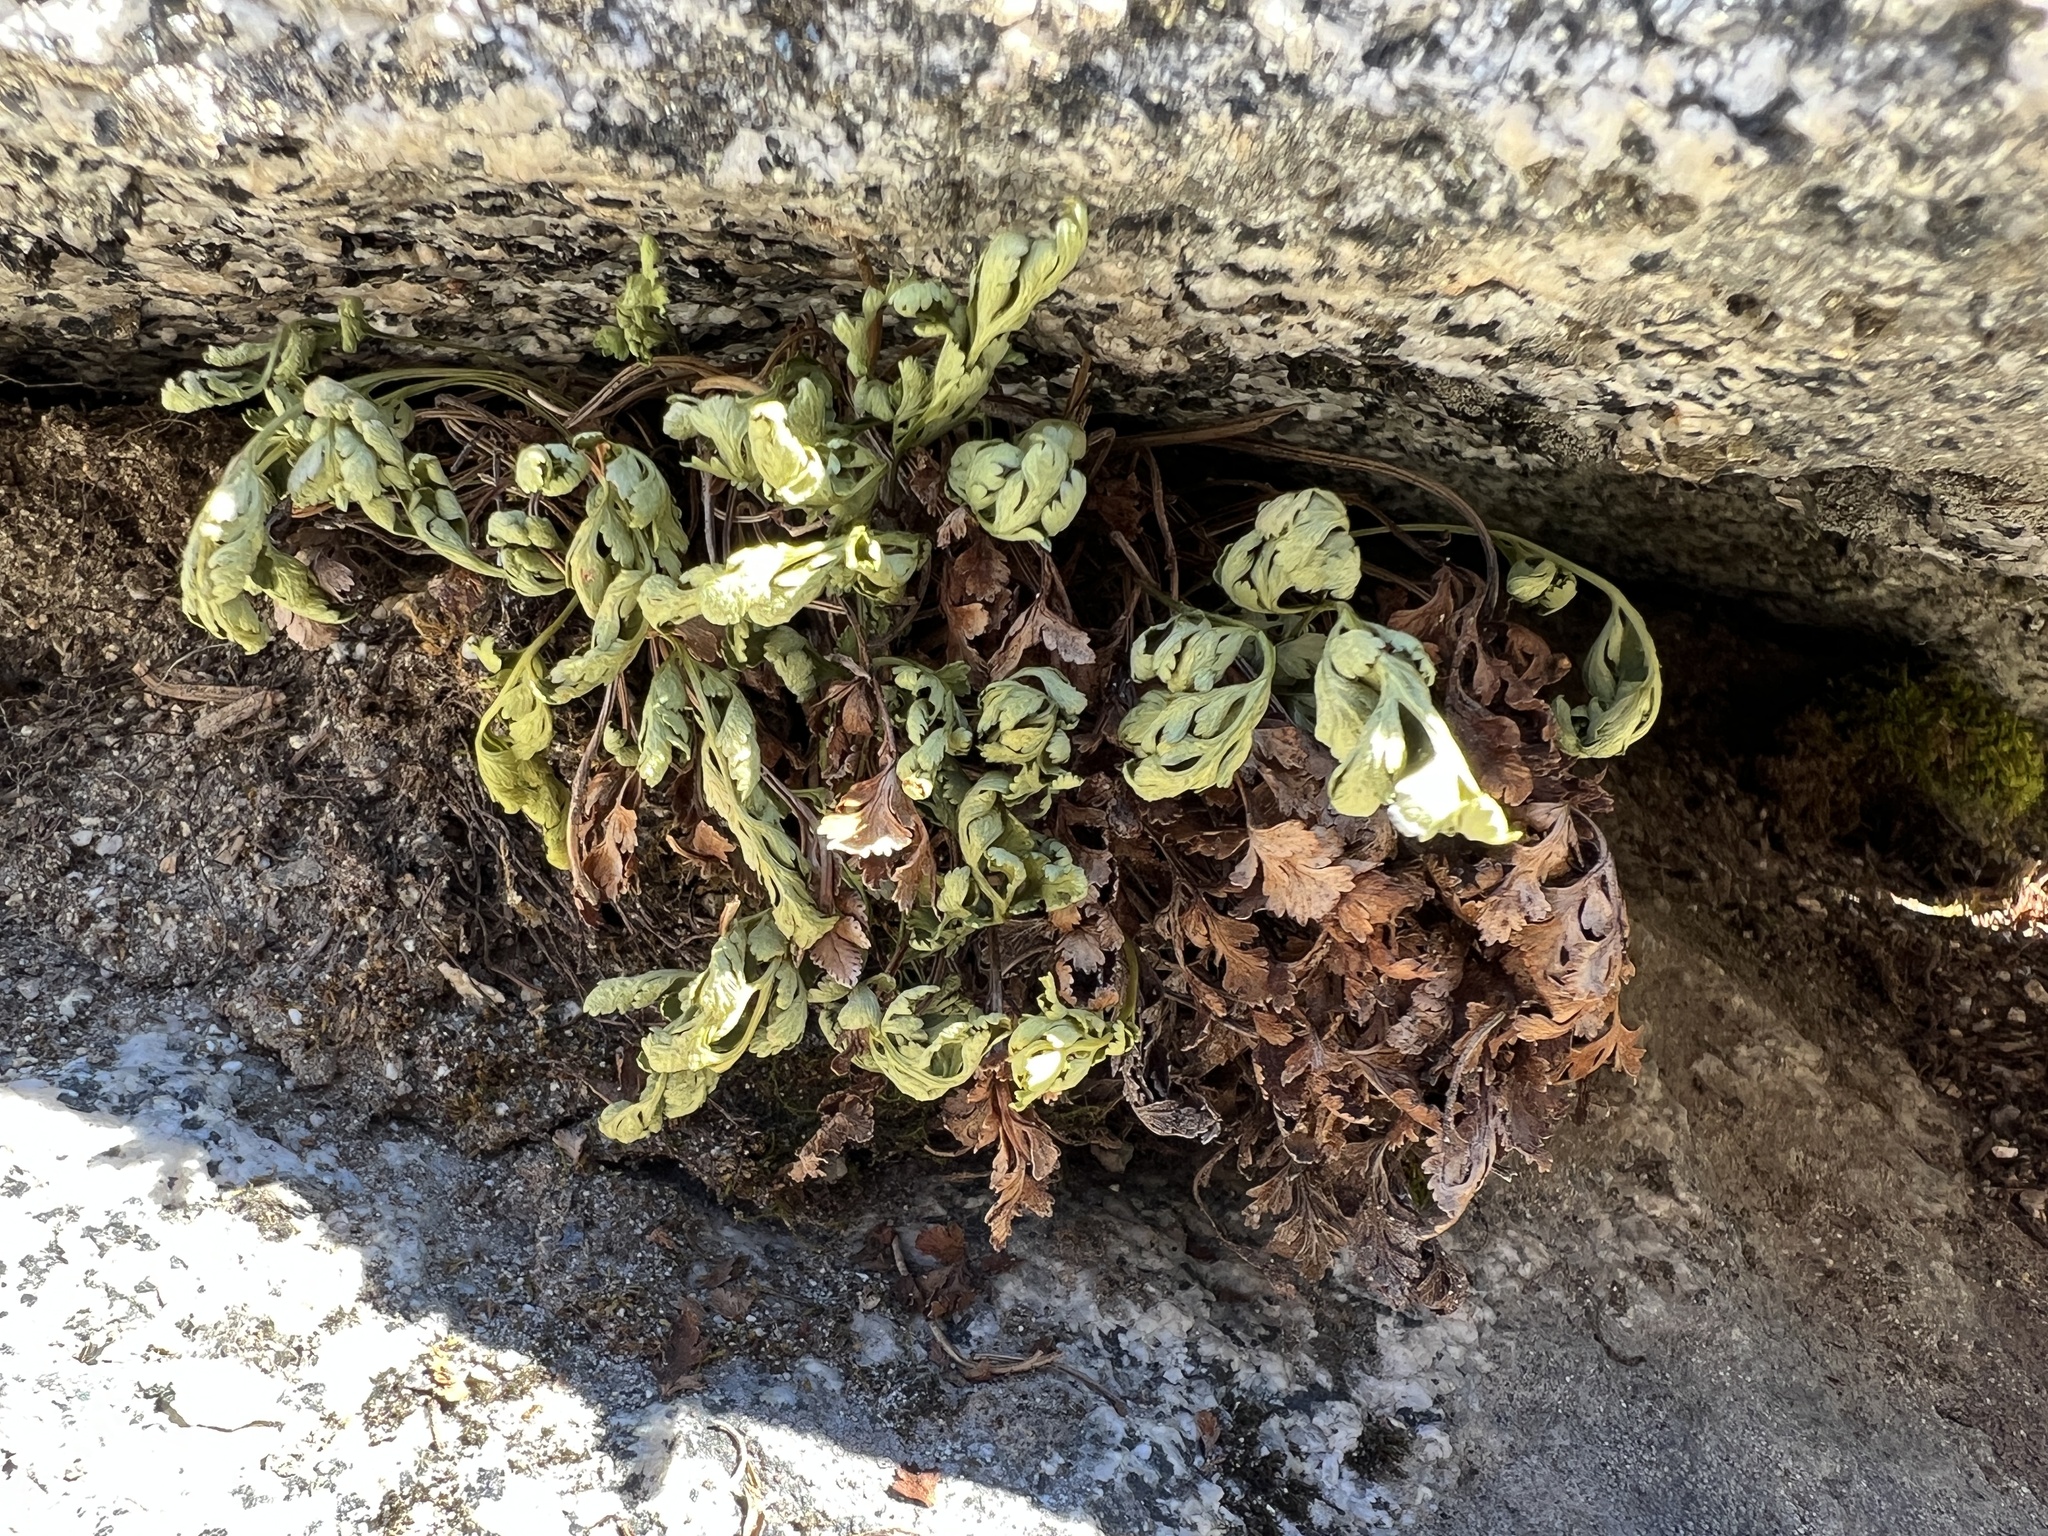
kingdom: Plantae
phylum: Tracheophyta
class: Polypodiopsida
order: Polypodiales
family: Pteridaceae
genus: Cryptogramma
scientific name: Cryptogramma acrostichoides
